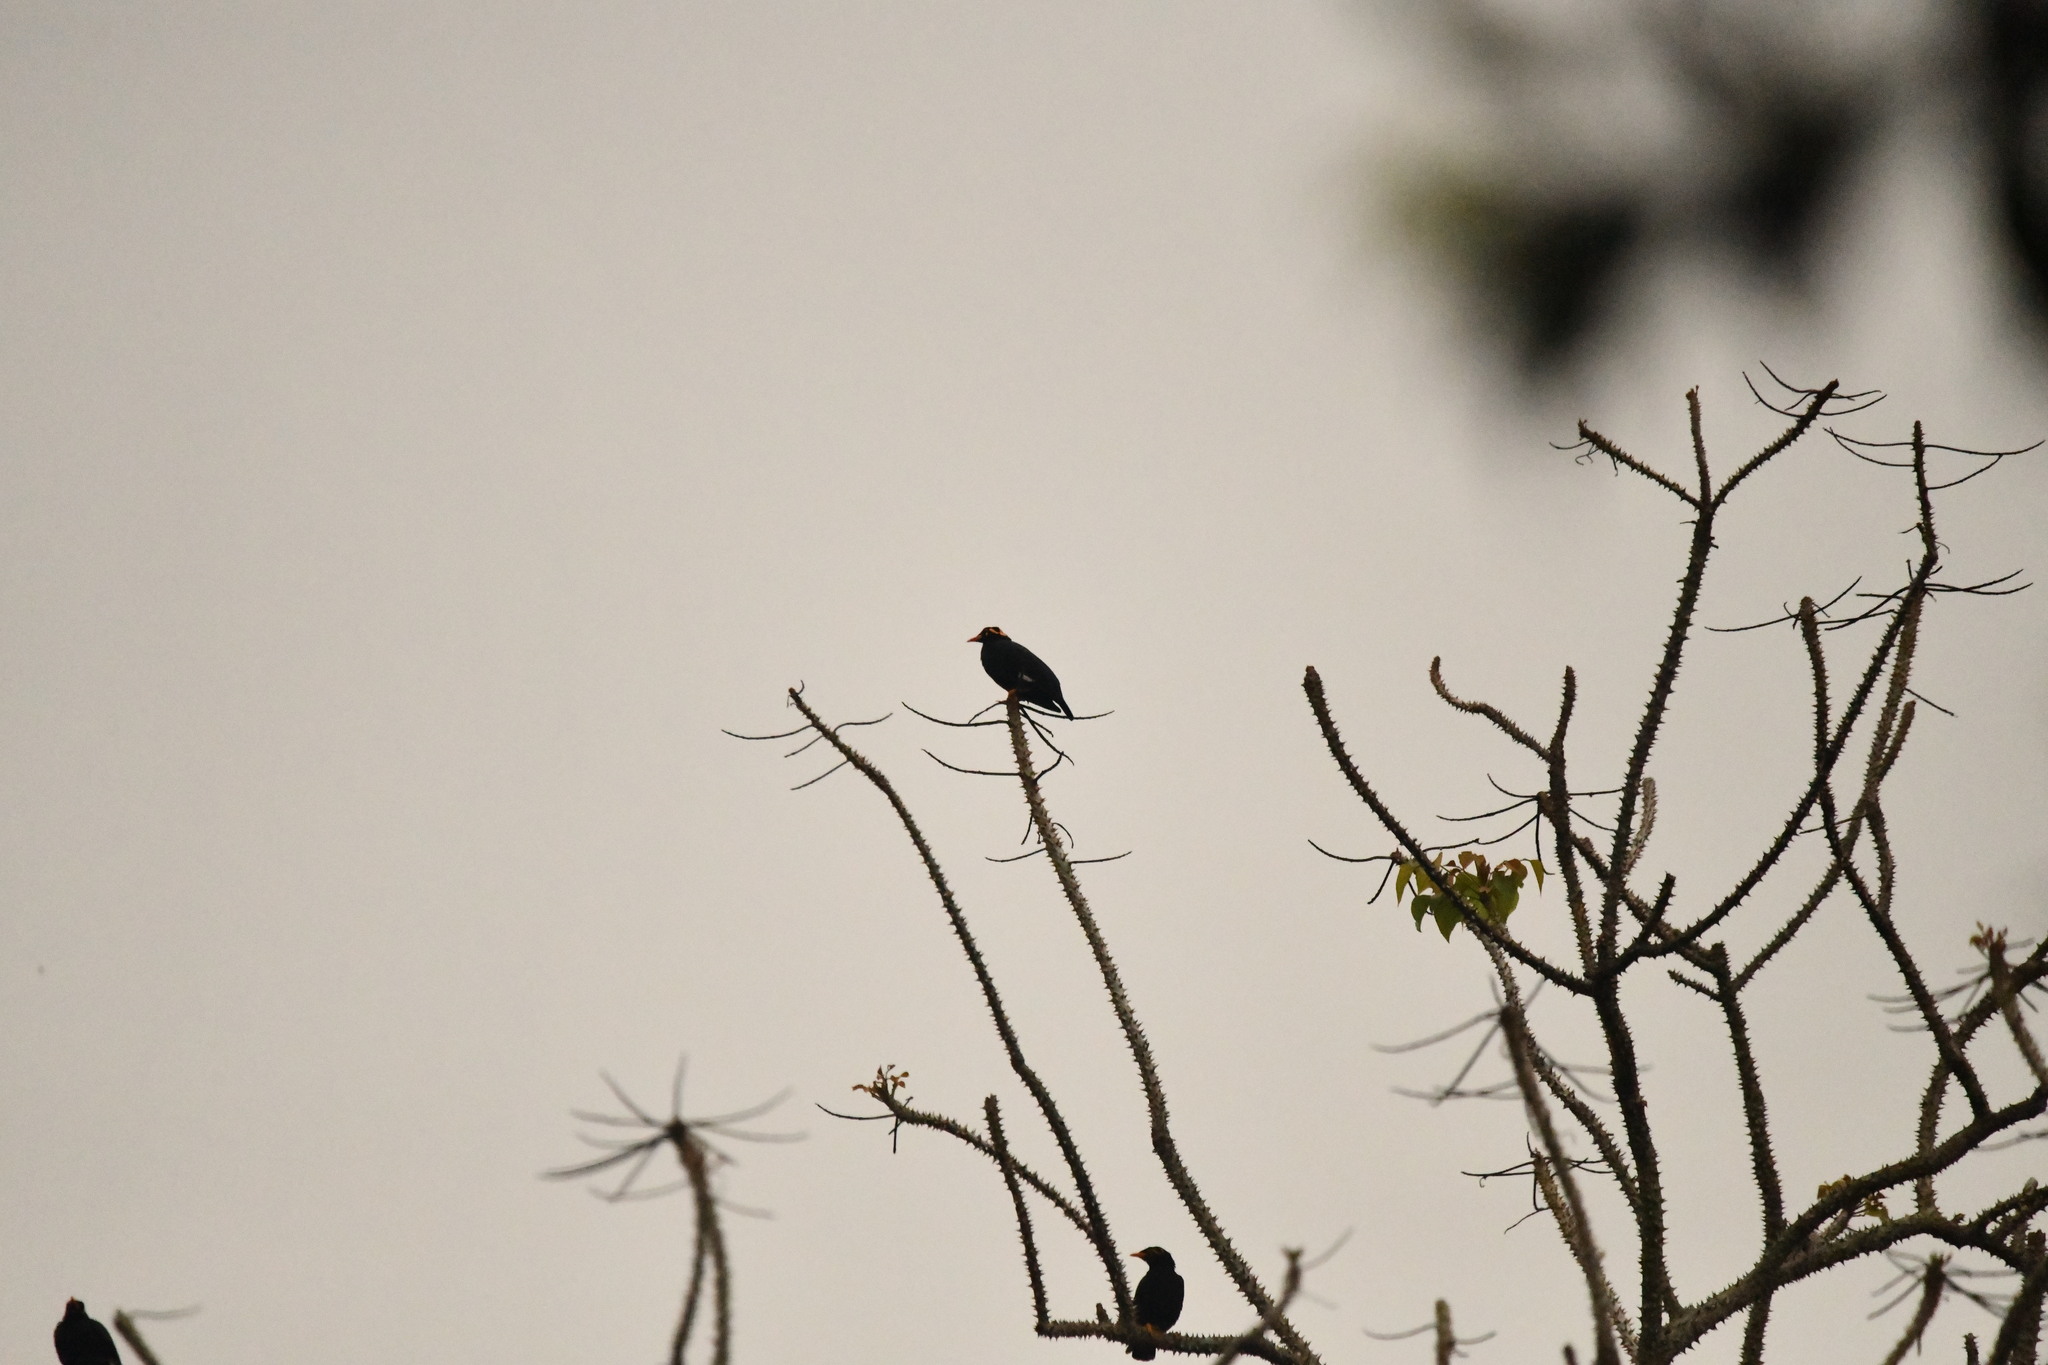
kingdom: Animalia
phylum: Chordata
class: Aves
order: Passeriformes
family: Sturnidae
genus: Gracula
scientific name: Gracula indica
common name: Southern hill myna
